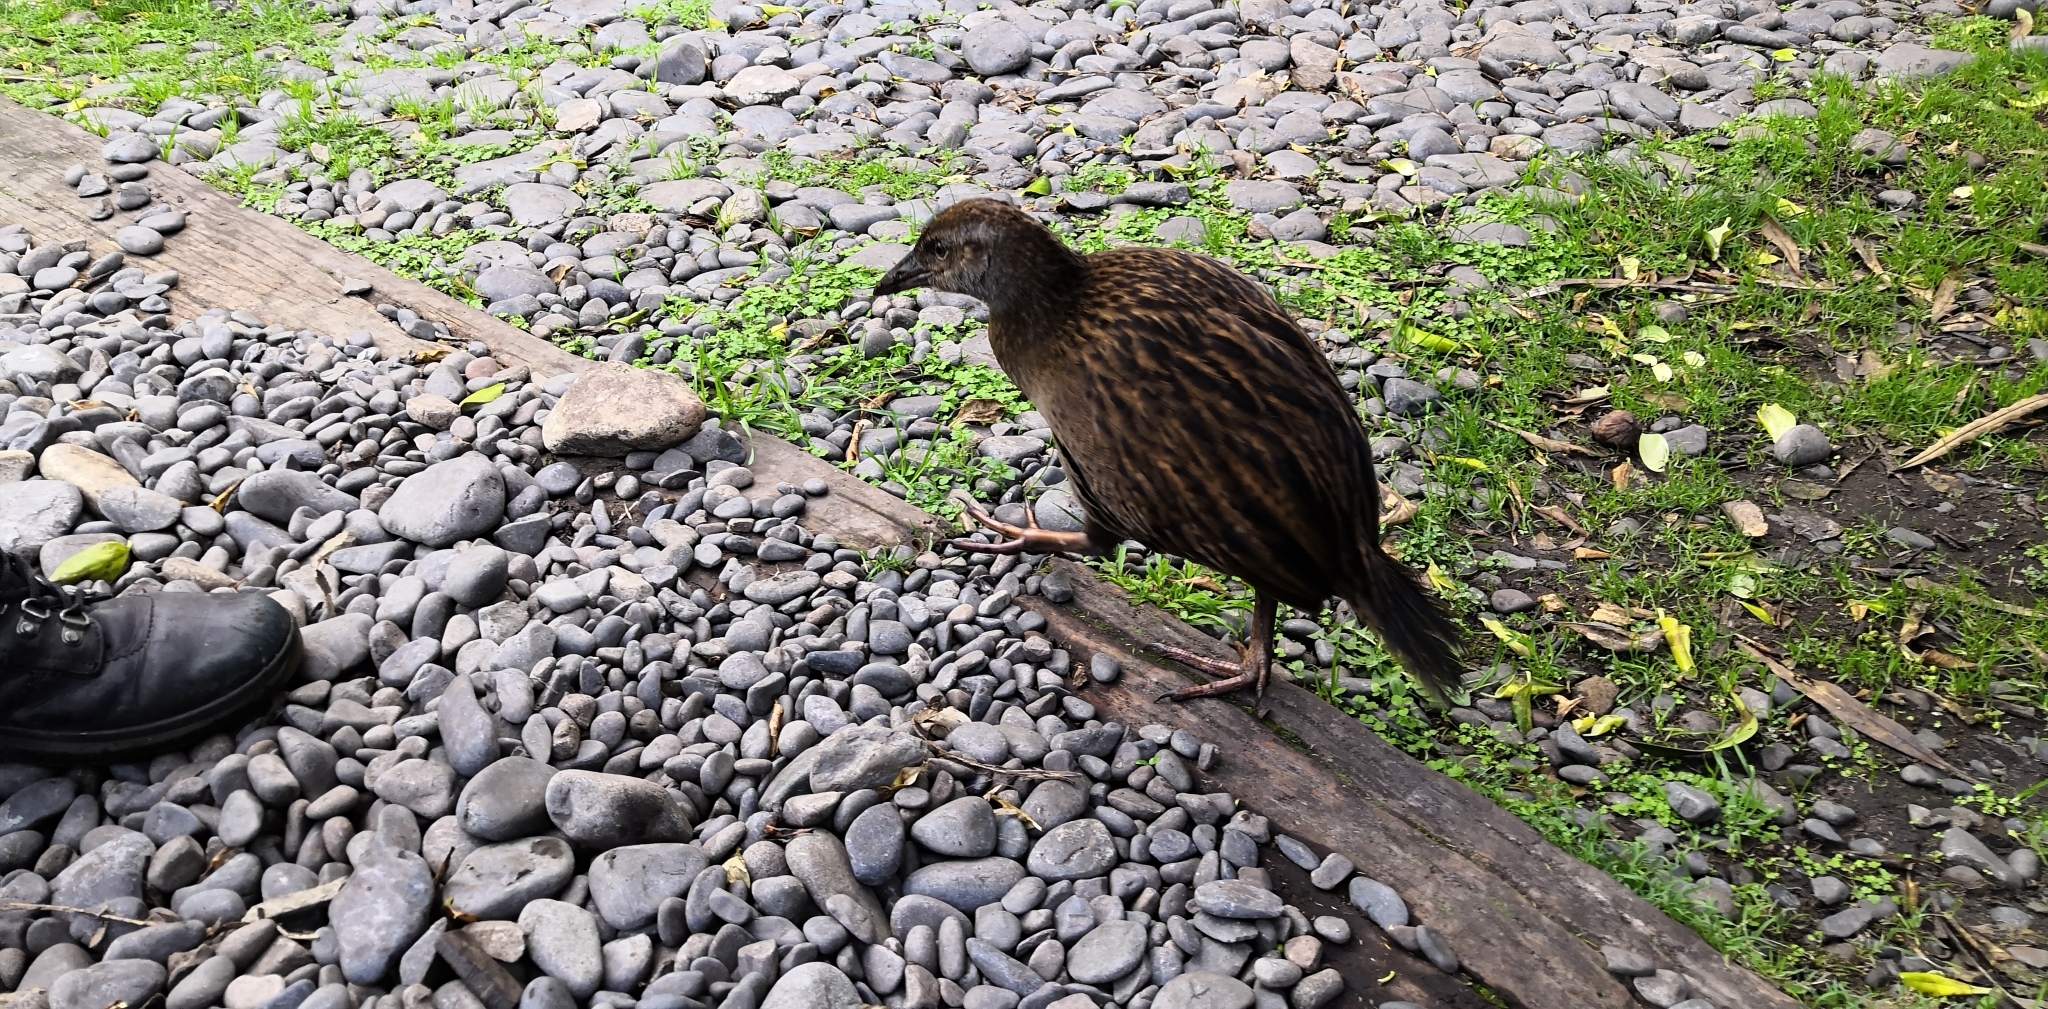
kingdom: Animalia
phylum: Chordata
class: Aves
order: Gruiformes
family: Rallidae
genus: Gallirallus
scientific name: Gallirallus australis
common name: Weka
